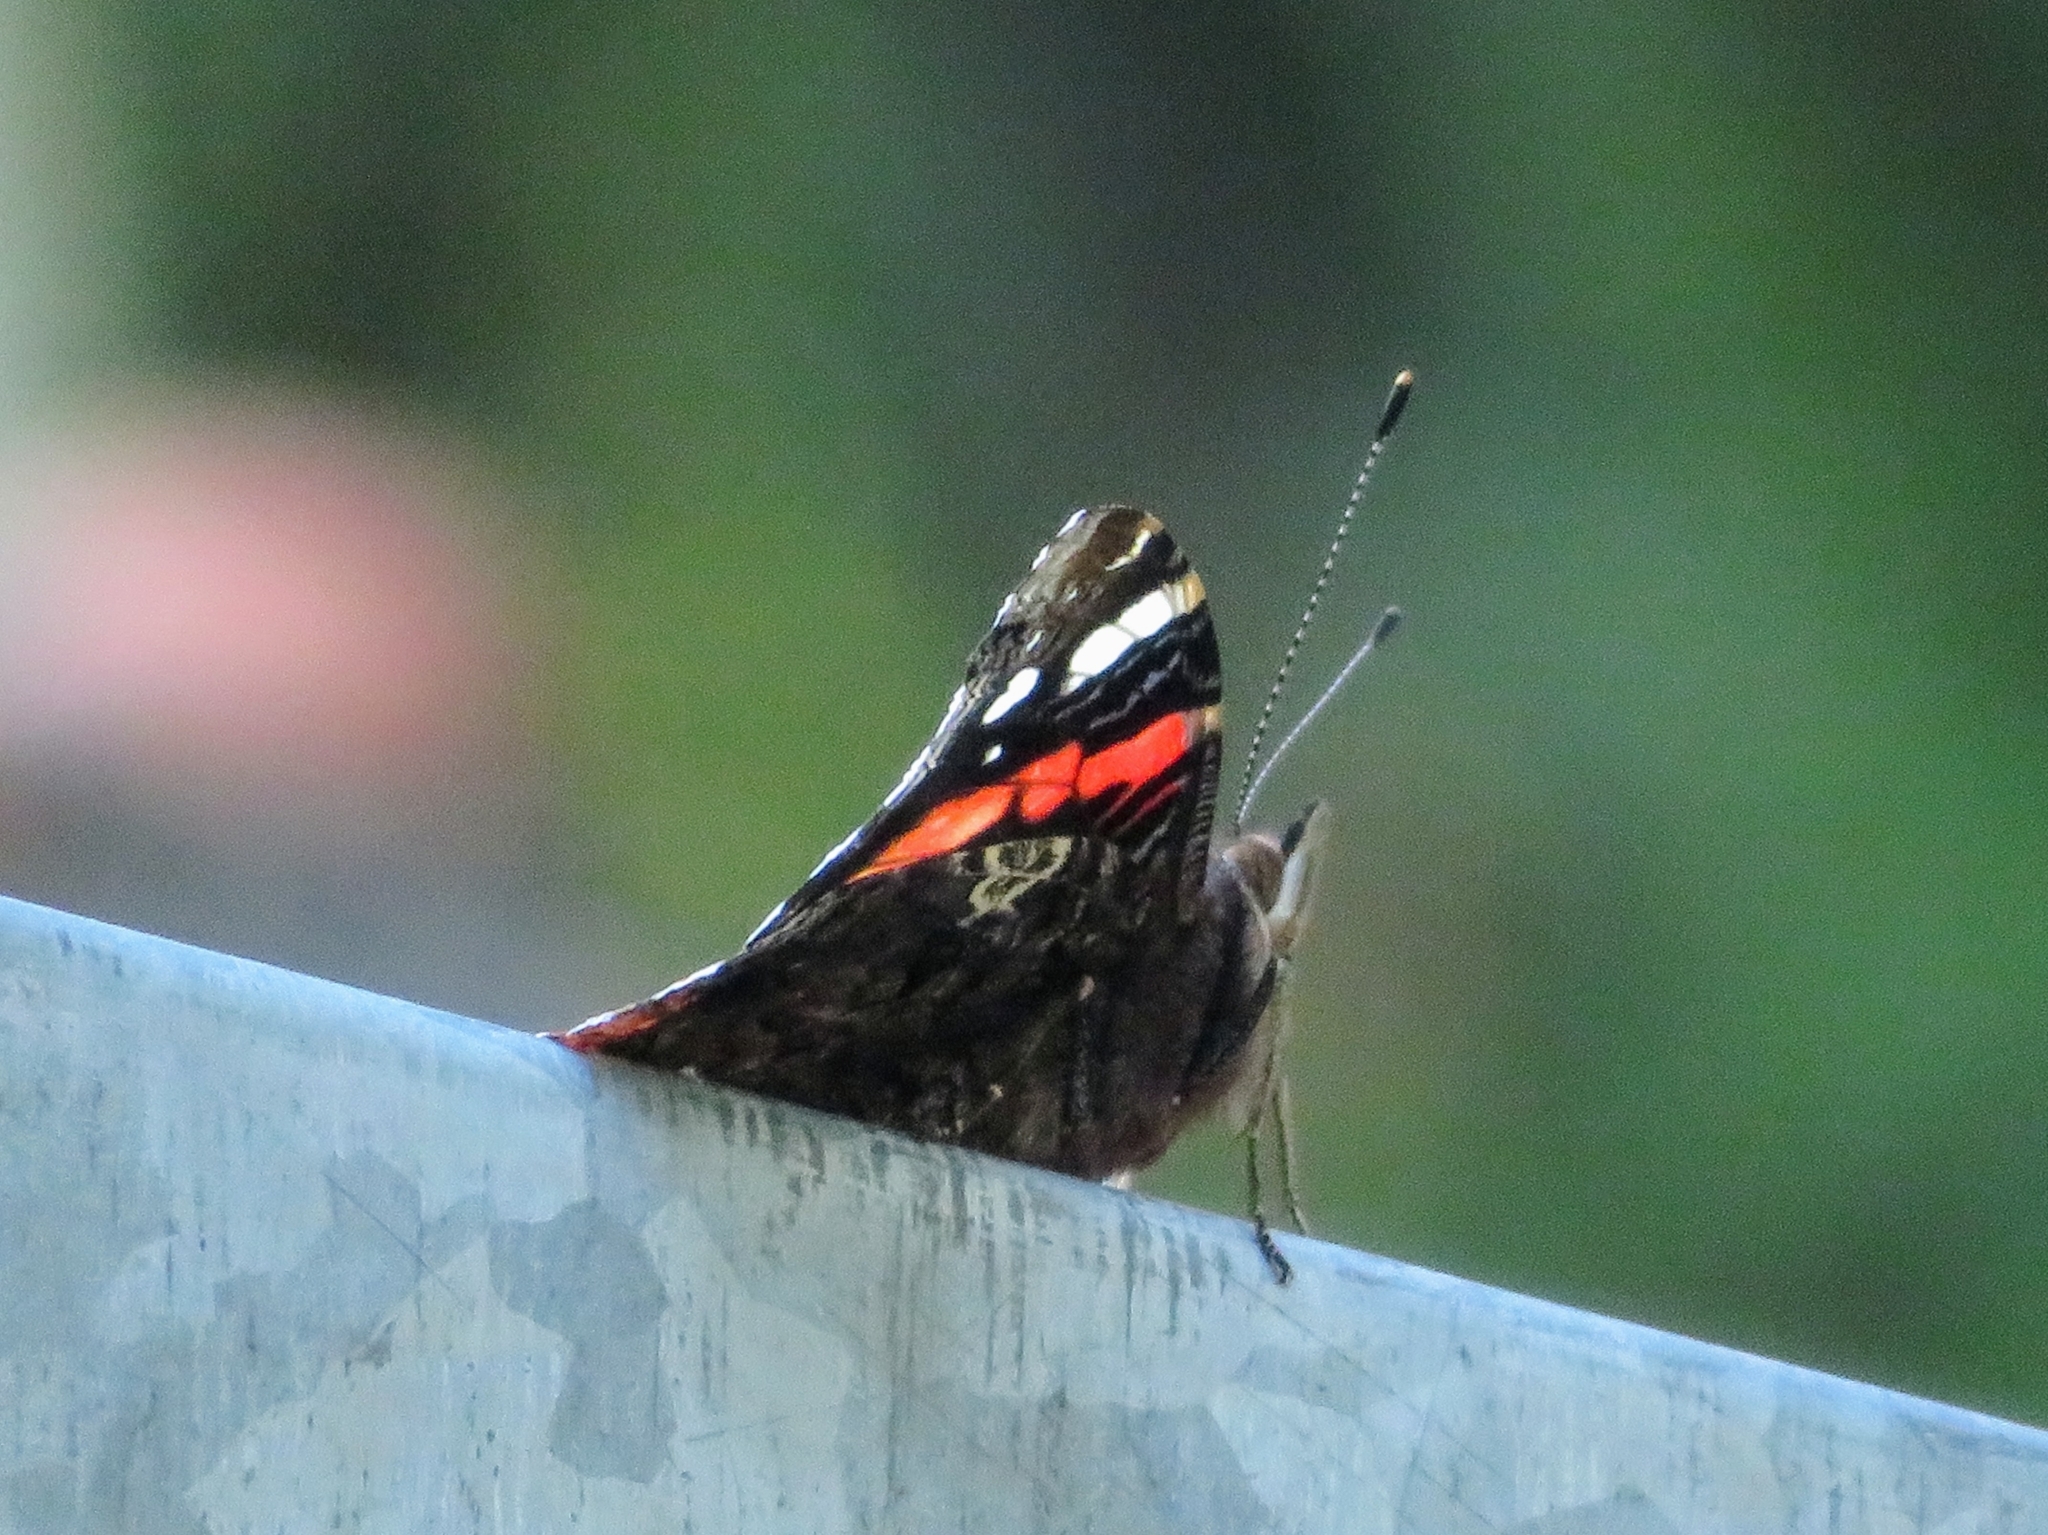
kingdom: Animalia
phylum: Arthropoda
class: Insecta
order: Lepidoptera
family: Nymphalidae
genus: Vanessa
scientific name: Vanessa atalanta
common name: Red admiral
